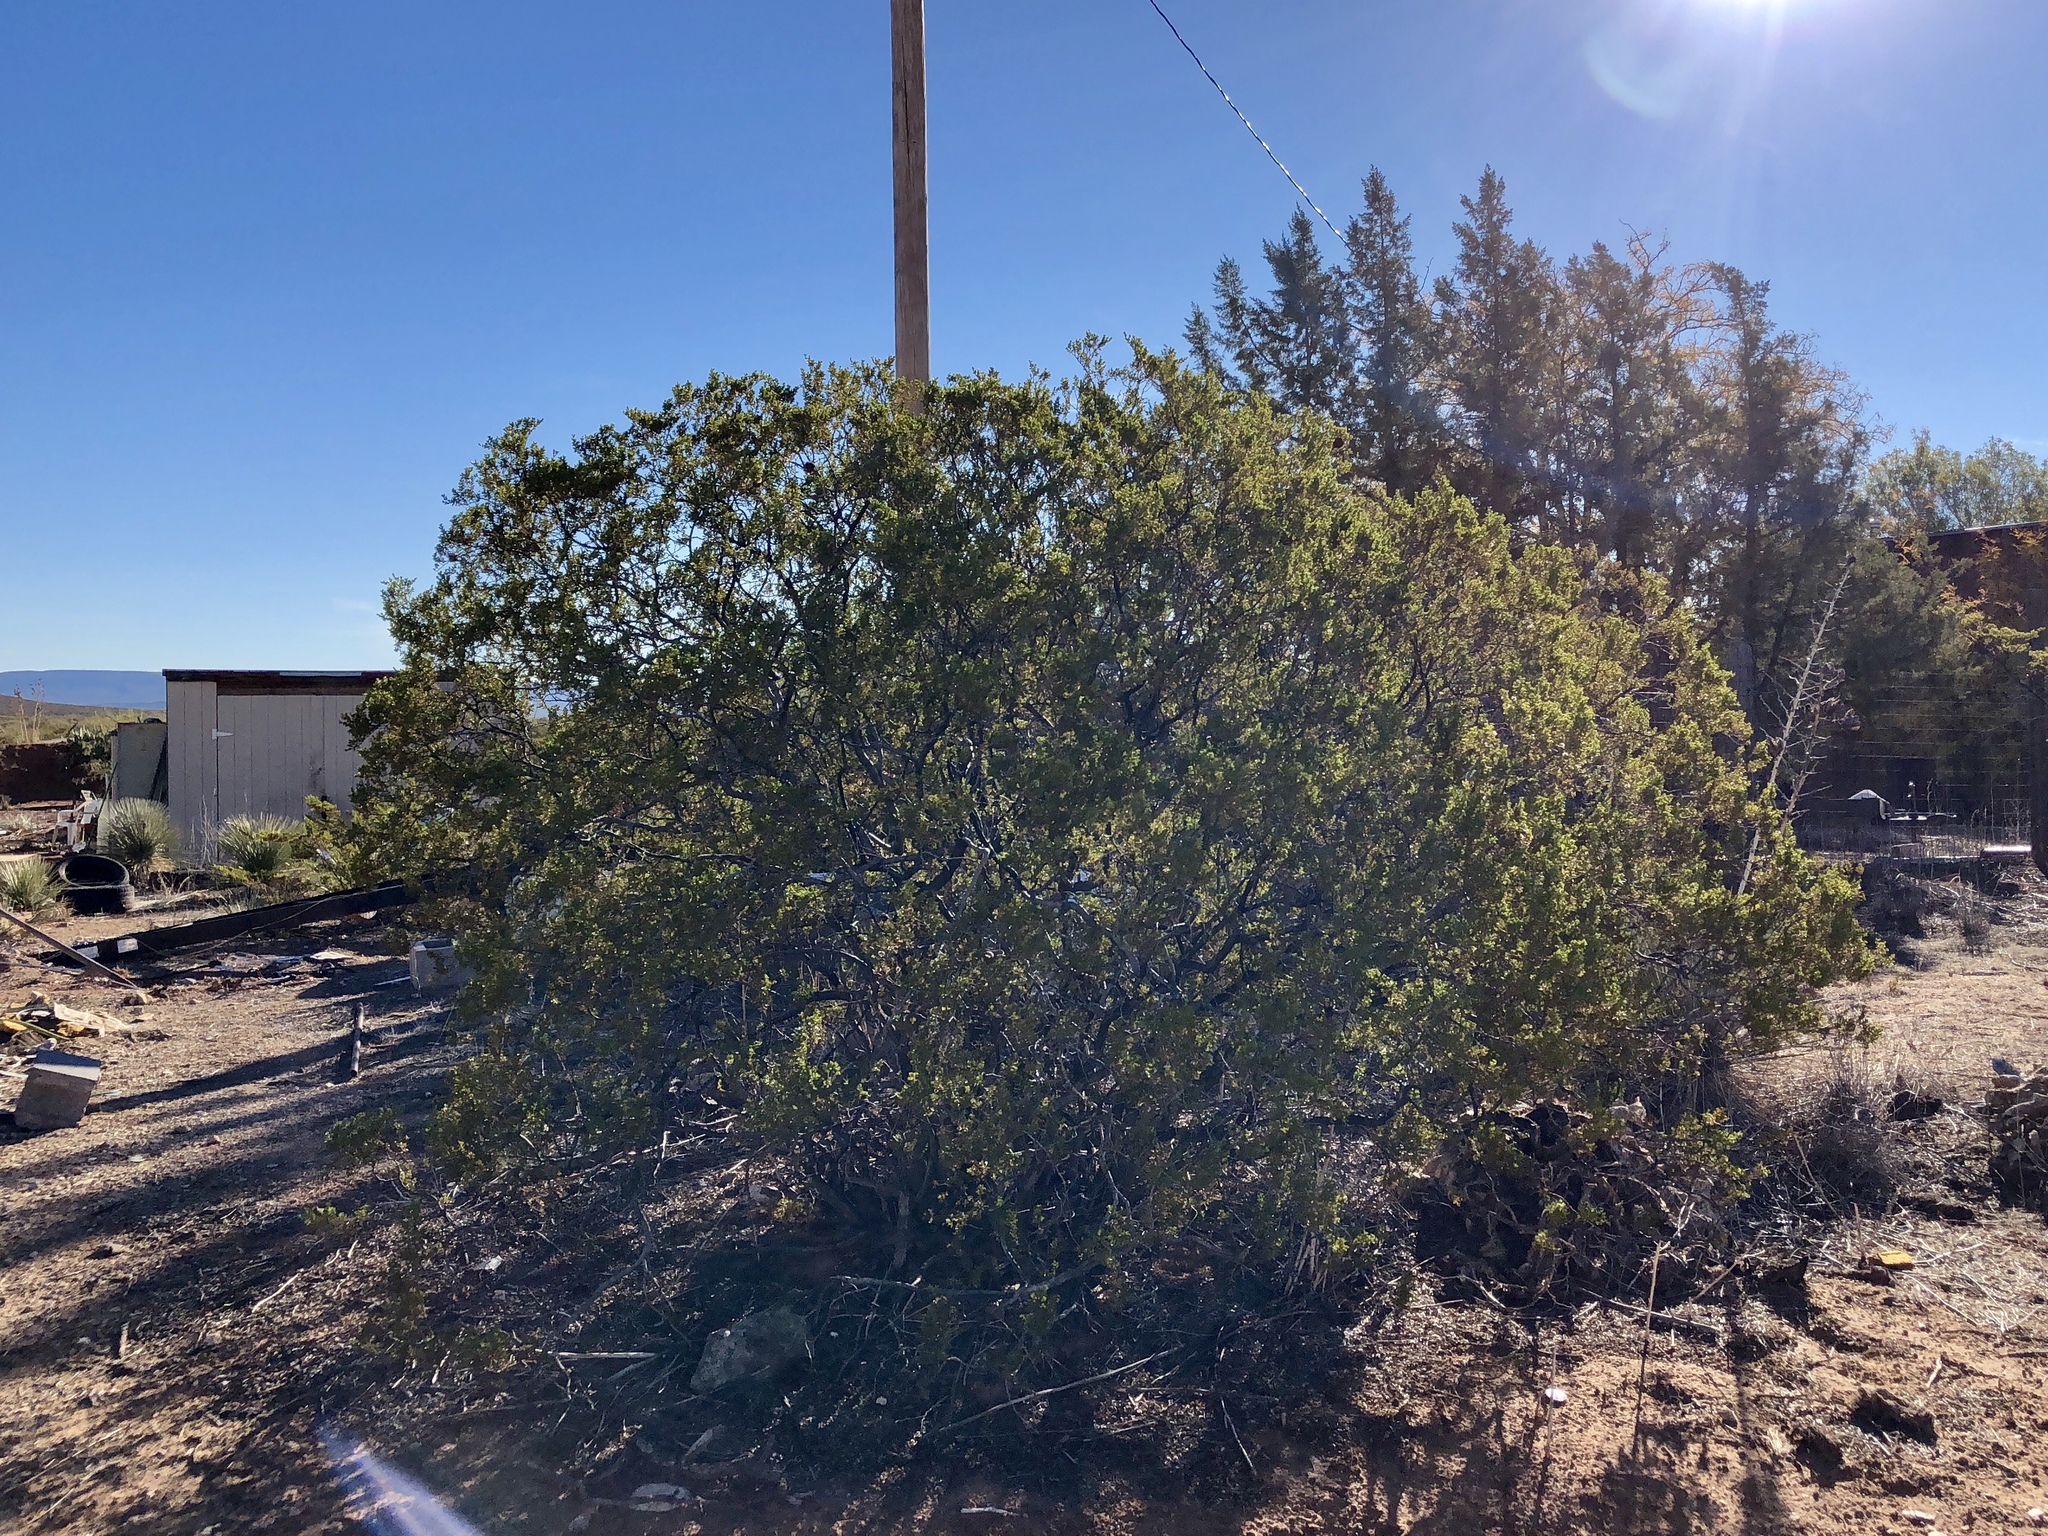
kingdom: Plantae
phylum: Tracheophyta
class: Magnoliopsida
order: Zygophyllales
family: Zygophyllaceae
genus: Larrea
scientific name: Larrea tridentata
